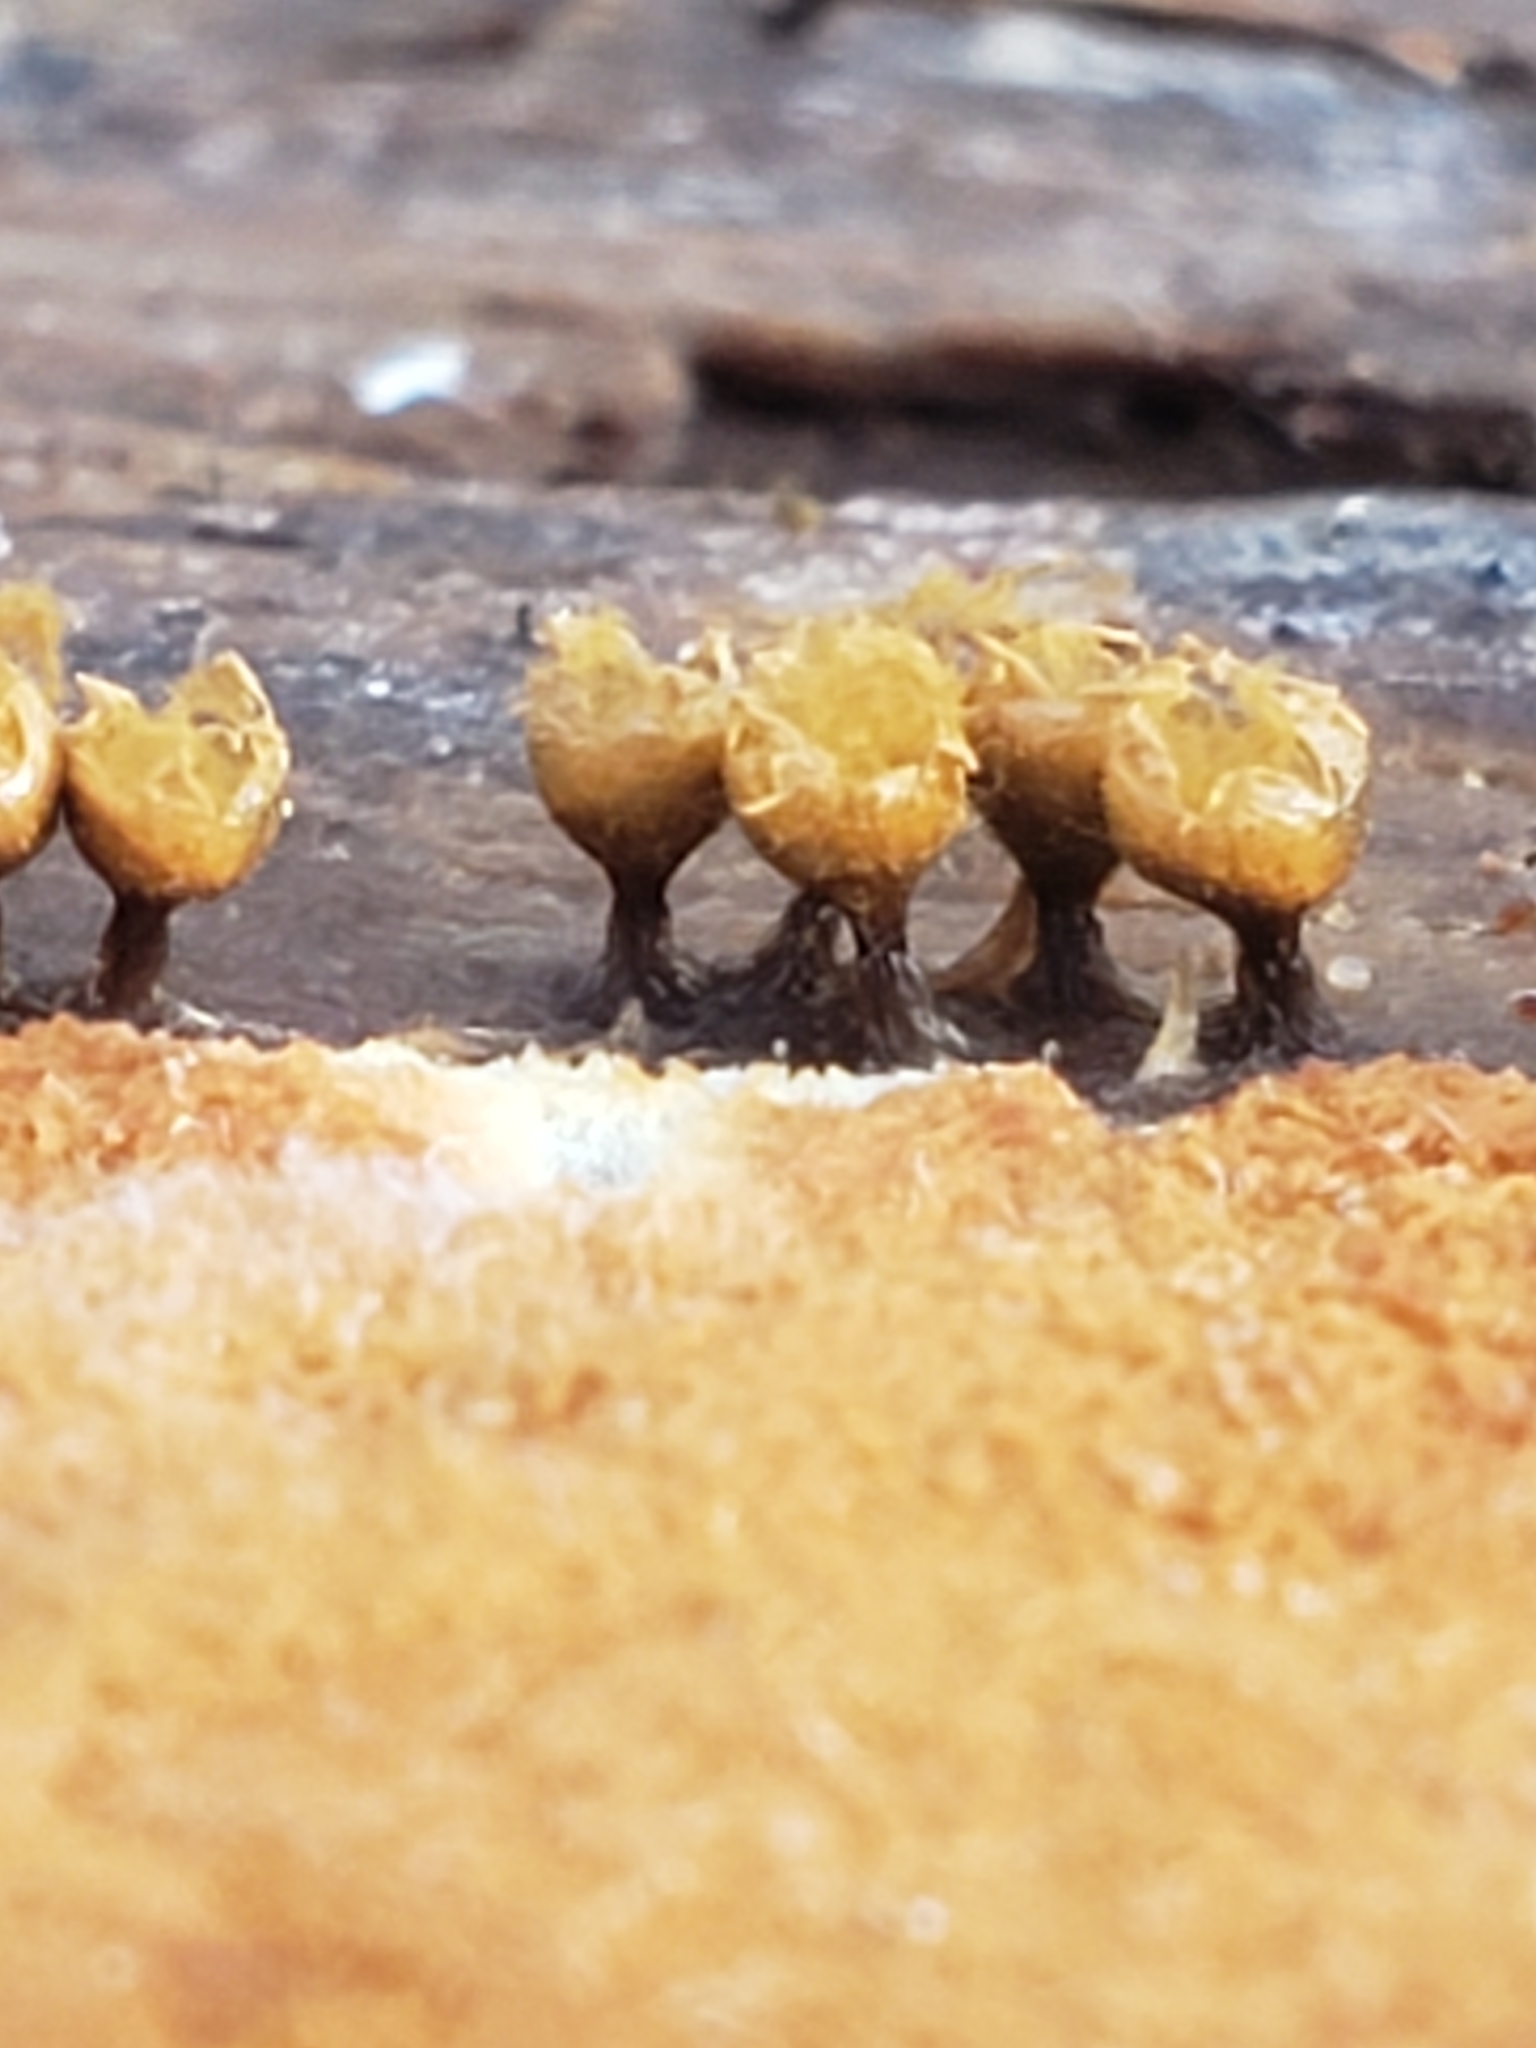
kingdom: Protozoa
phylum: Mycetozoa
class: Myxomycetes
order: Trichiales
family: Arcyriaceae
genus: Hemitrichia
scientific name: Hemitrichia decipiens
